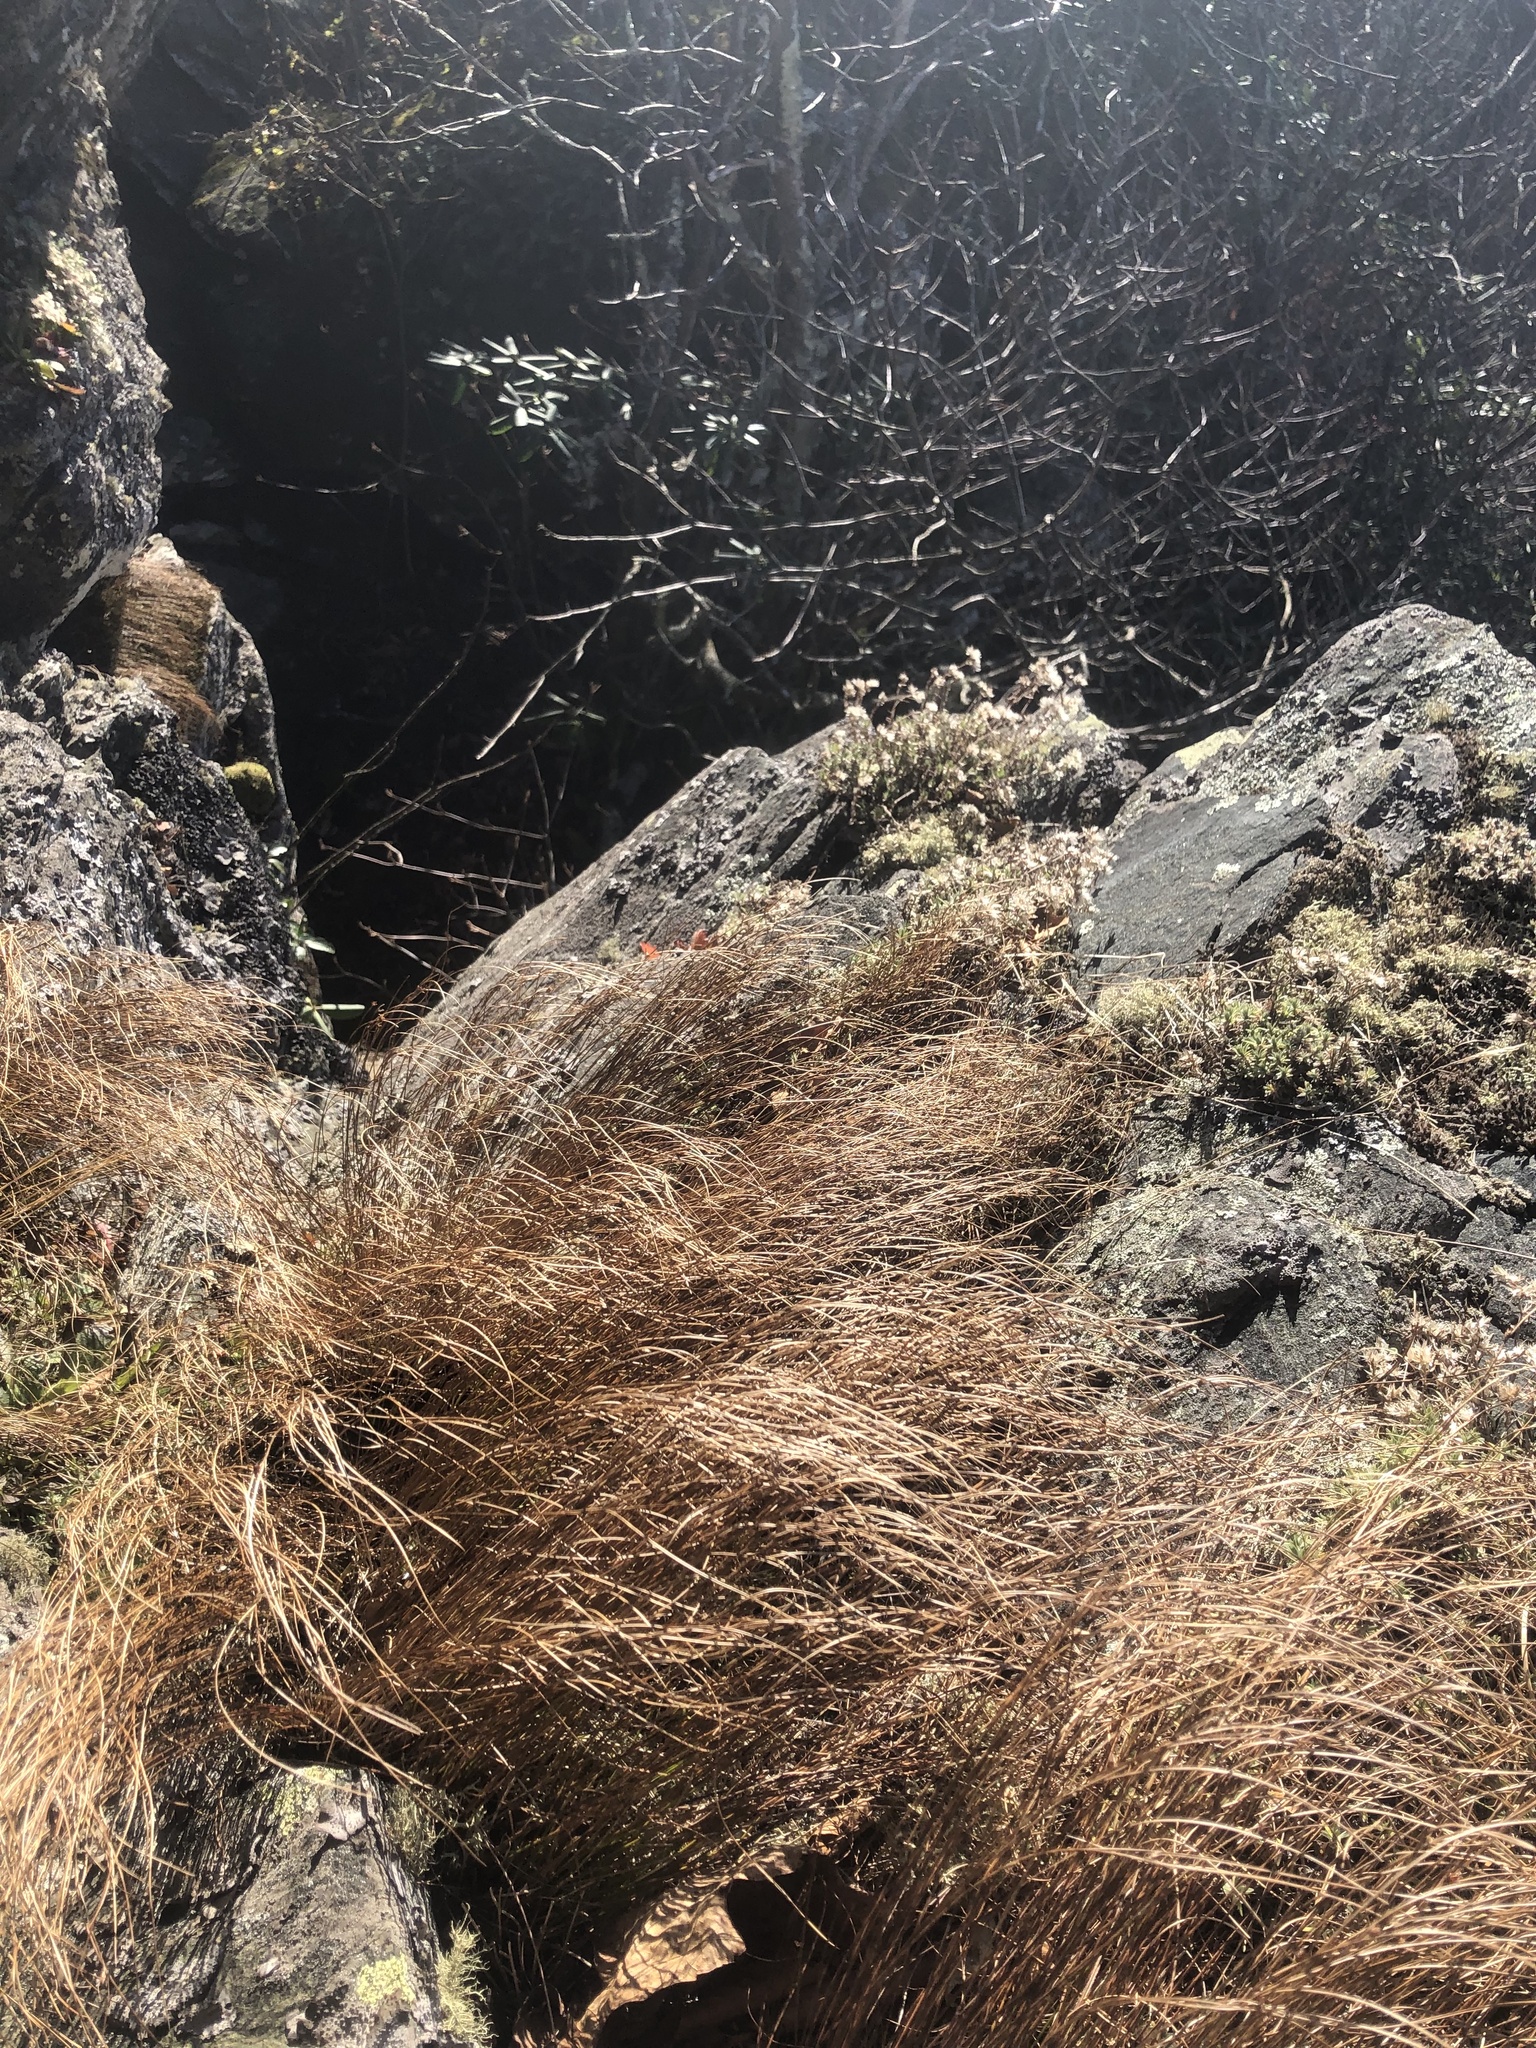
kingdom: Plantae
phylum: Tracheophyta
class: Liliopsida
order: Poales
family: Juncaceae
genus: Oreojuncus
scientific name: Oreojuncus trifidus
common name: Highland rush
